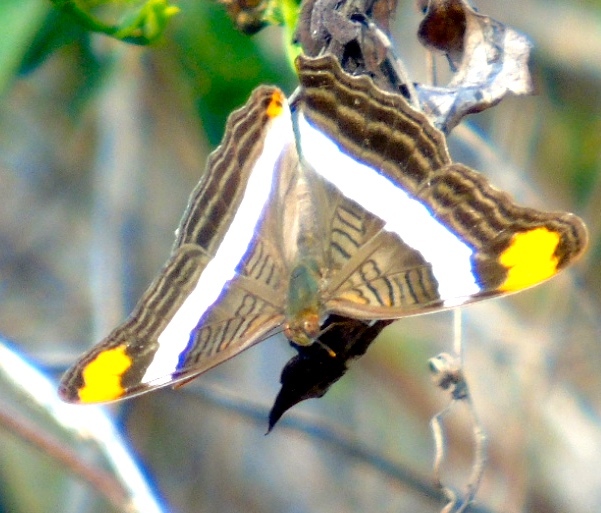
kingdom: Animalia
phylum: Arthropoda
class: Insecta
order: Lepidoptera
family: Nymphalidae
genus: Limenitis
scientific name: Limenitis fessonia
